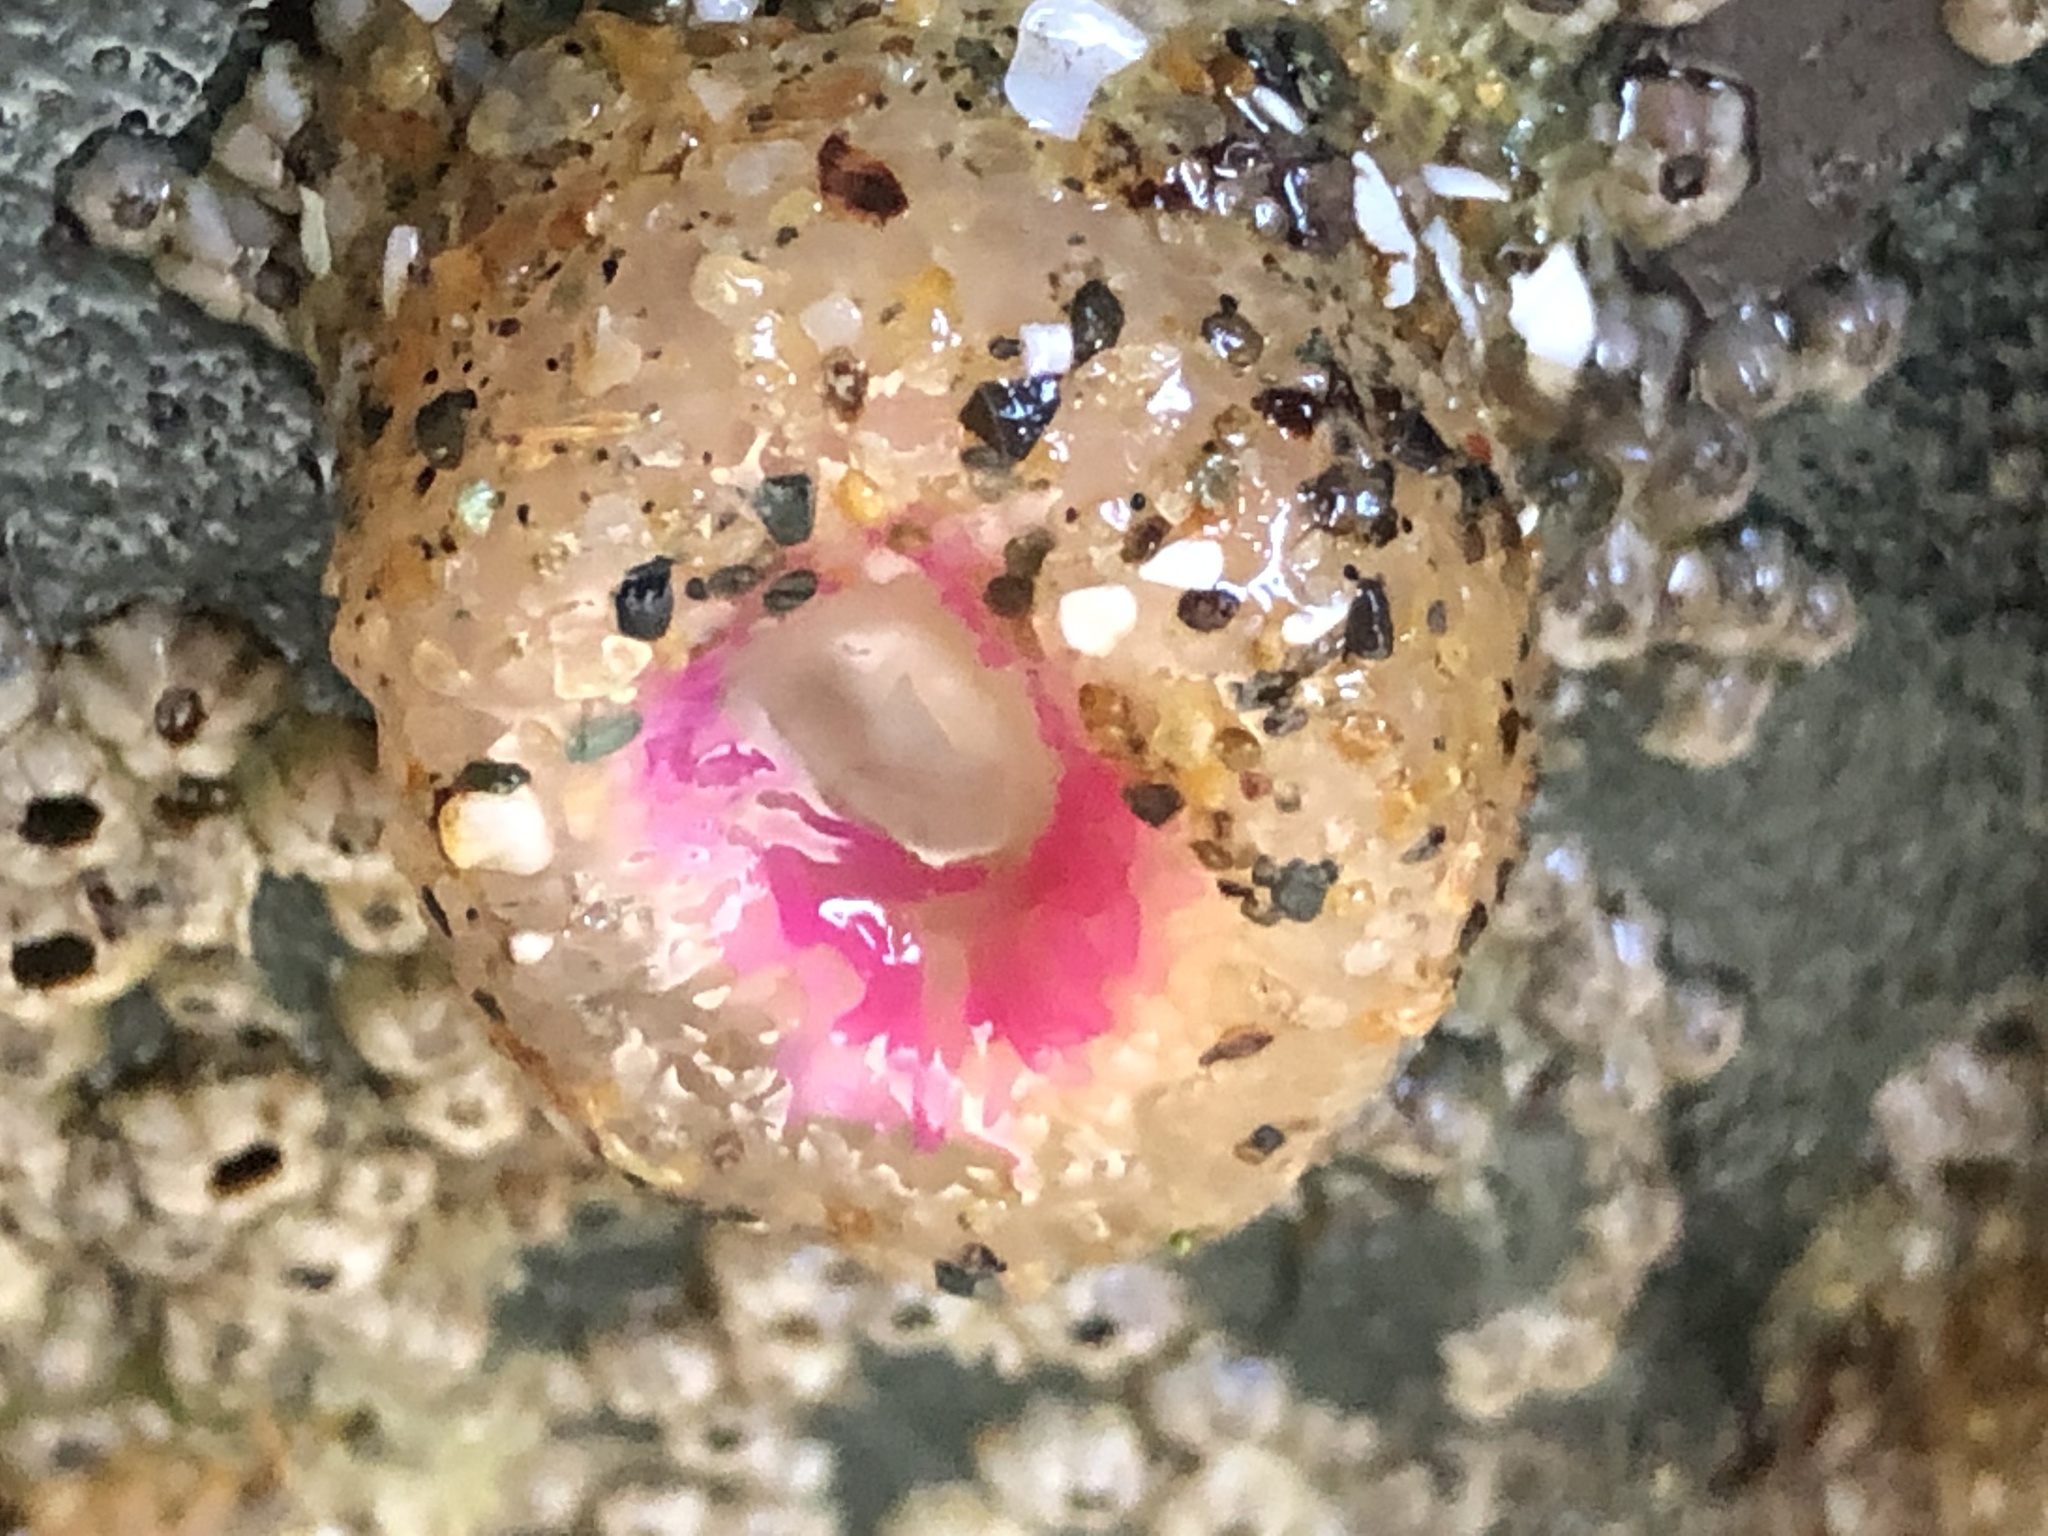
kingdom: Animalia
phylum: Cnidaria
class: Anthozoa
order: Actiniaria
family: Actiniidae
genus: Anthopleura
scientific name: Anthopleura elegantissima
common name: Clonal anemone
